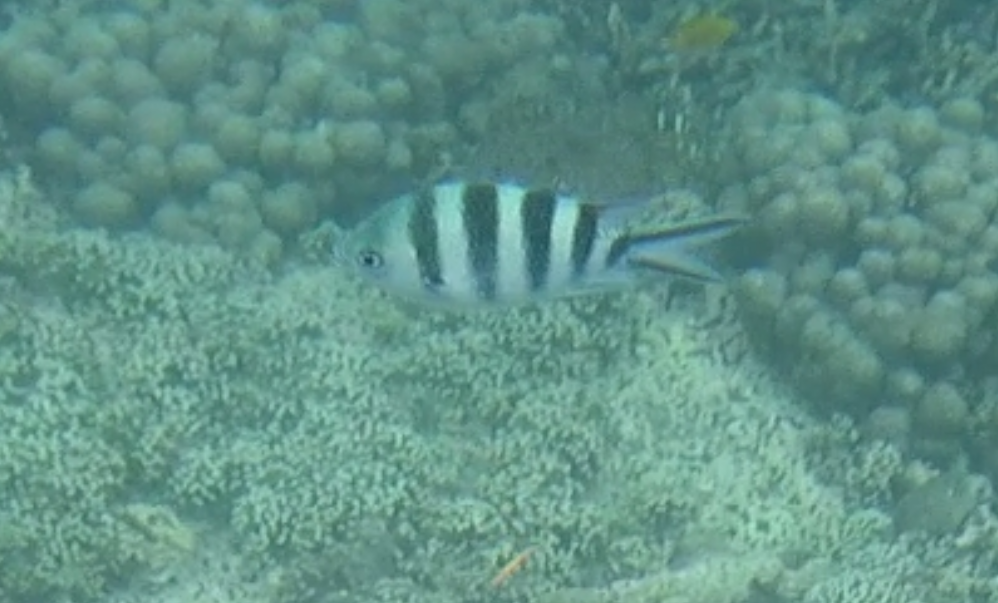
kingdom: Animalia
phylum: Chordata
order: Perciformes
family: Pomacentridae
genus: Abudefduf
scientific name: Abudefduf sexfasciatus
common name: Scissortail sergeant
